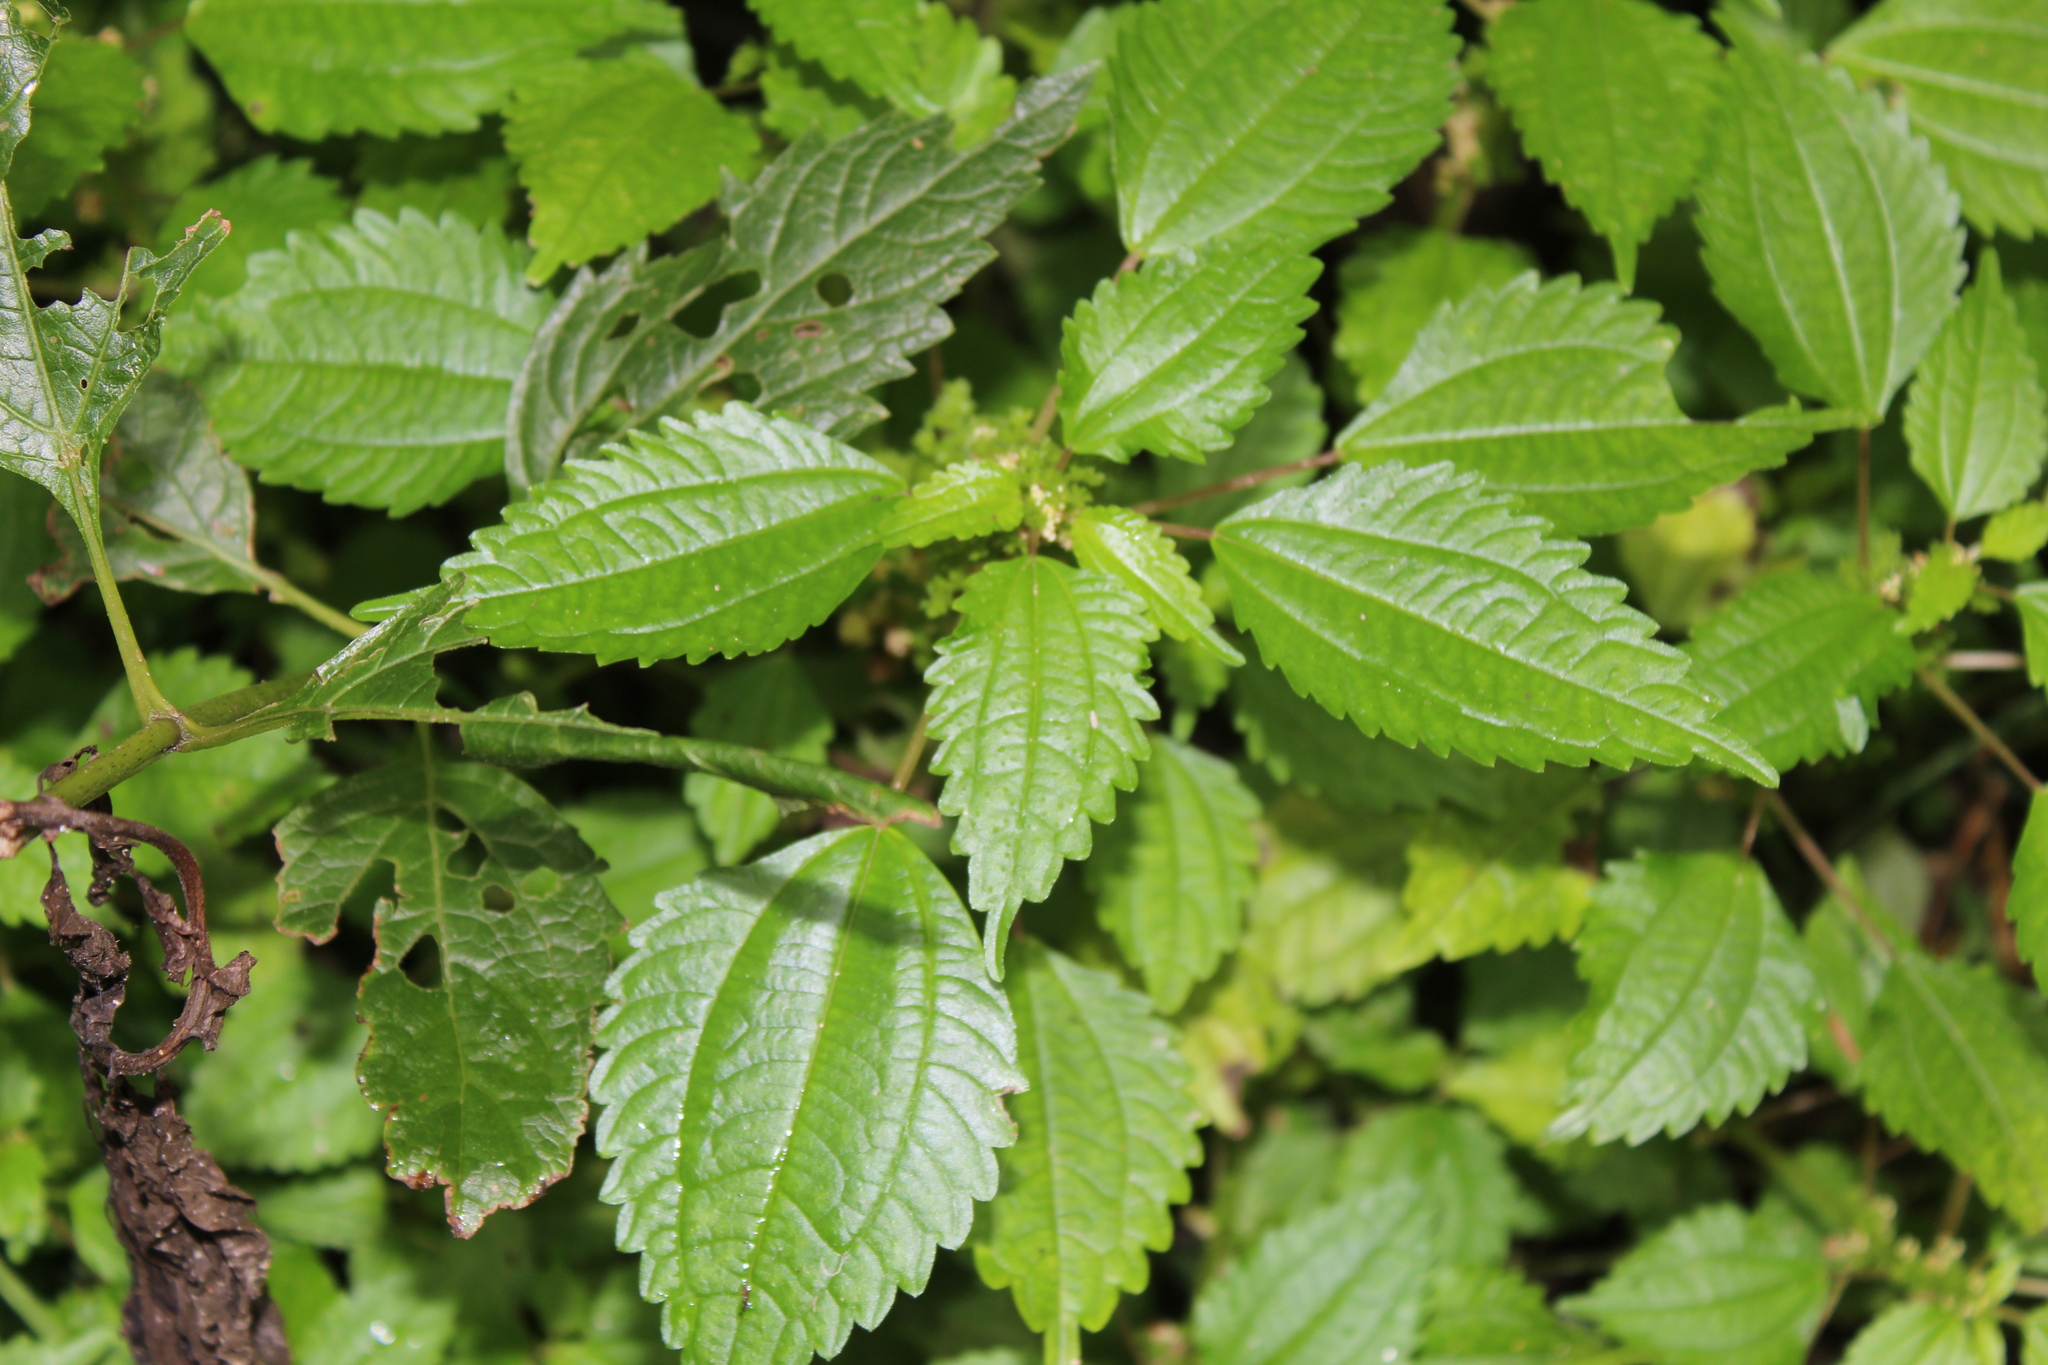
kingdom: Plantae
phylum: Tracheophyta
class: Magnoliopsida
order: Rosales
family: Urticaceae
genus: Pilea
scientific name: Pilea pumila
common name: Clearweed
